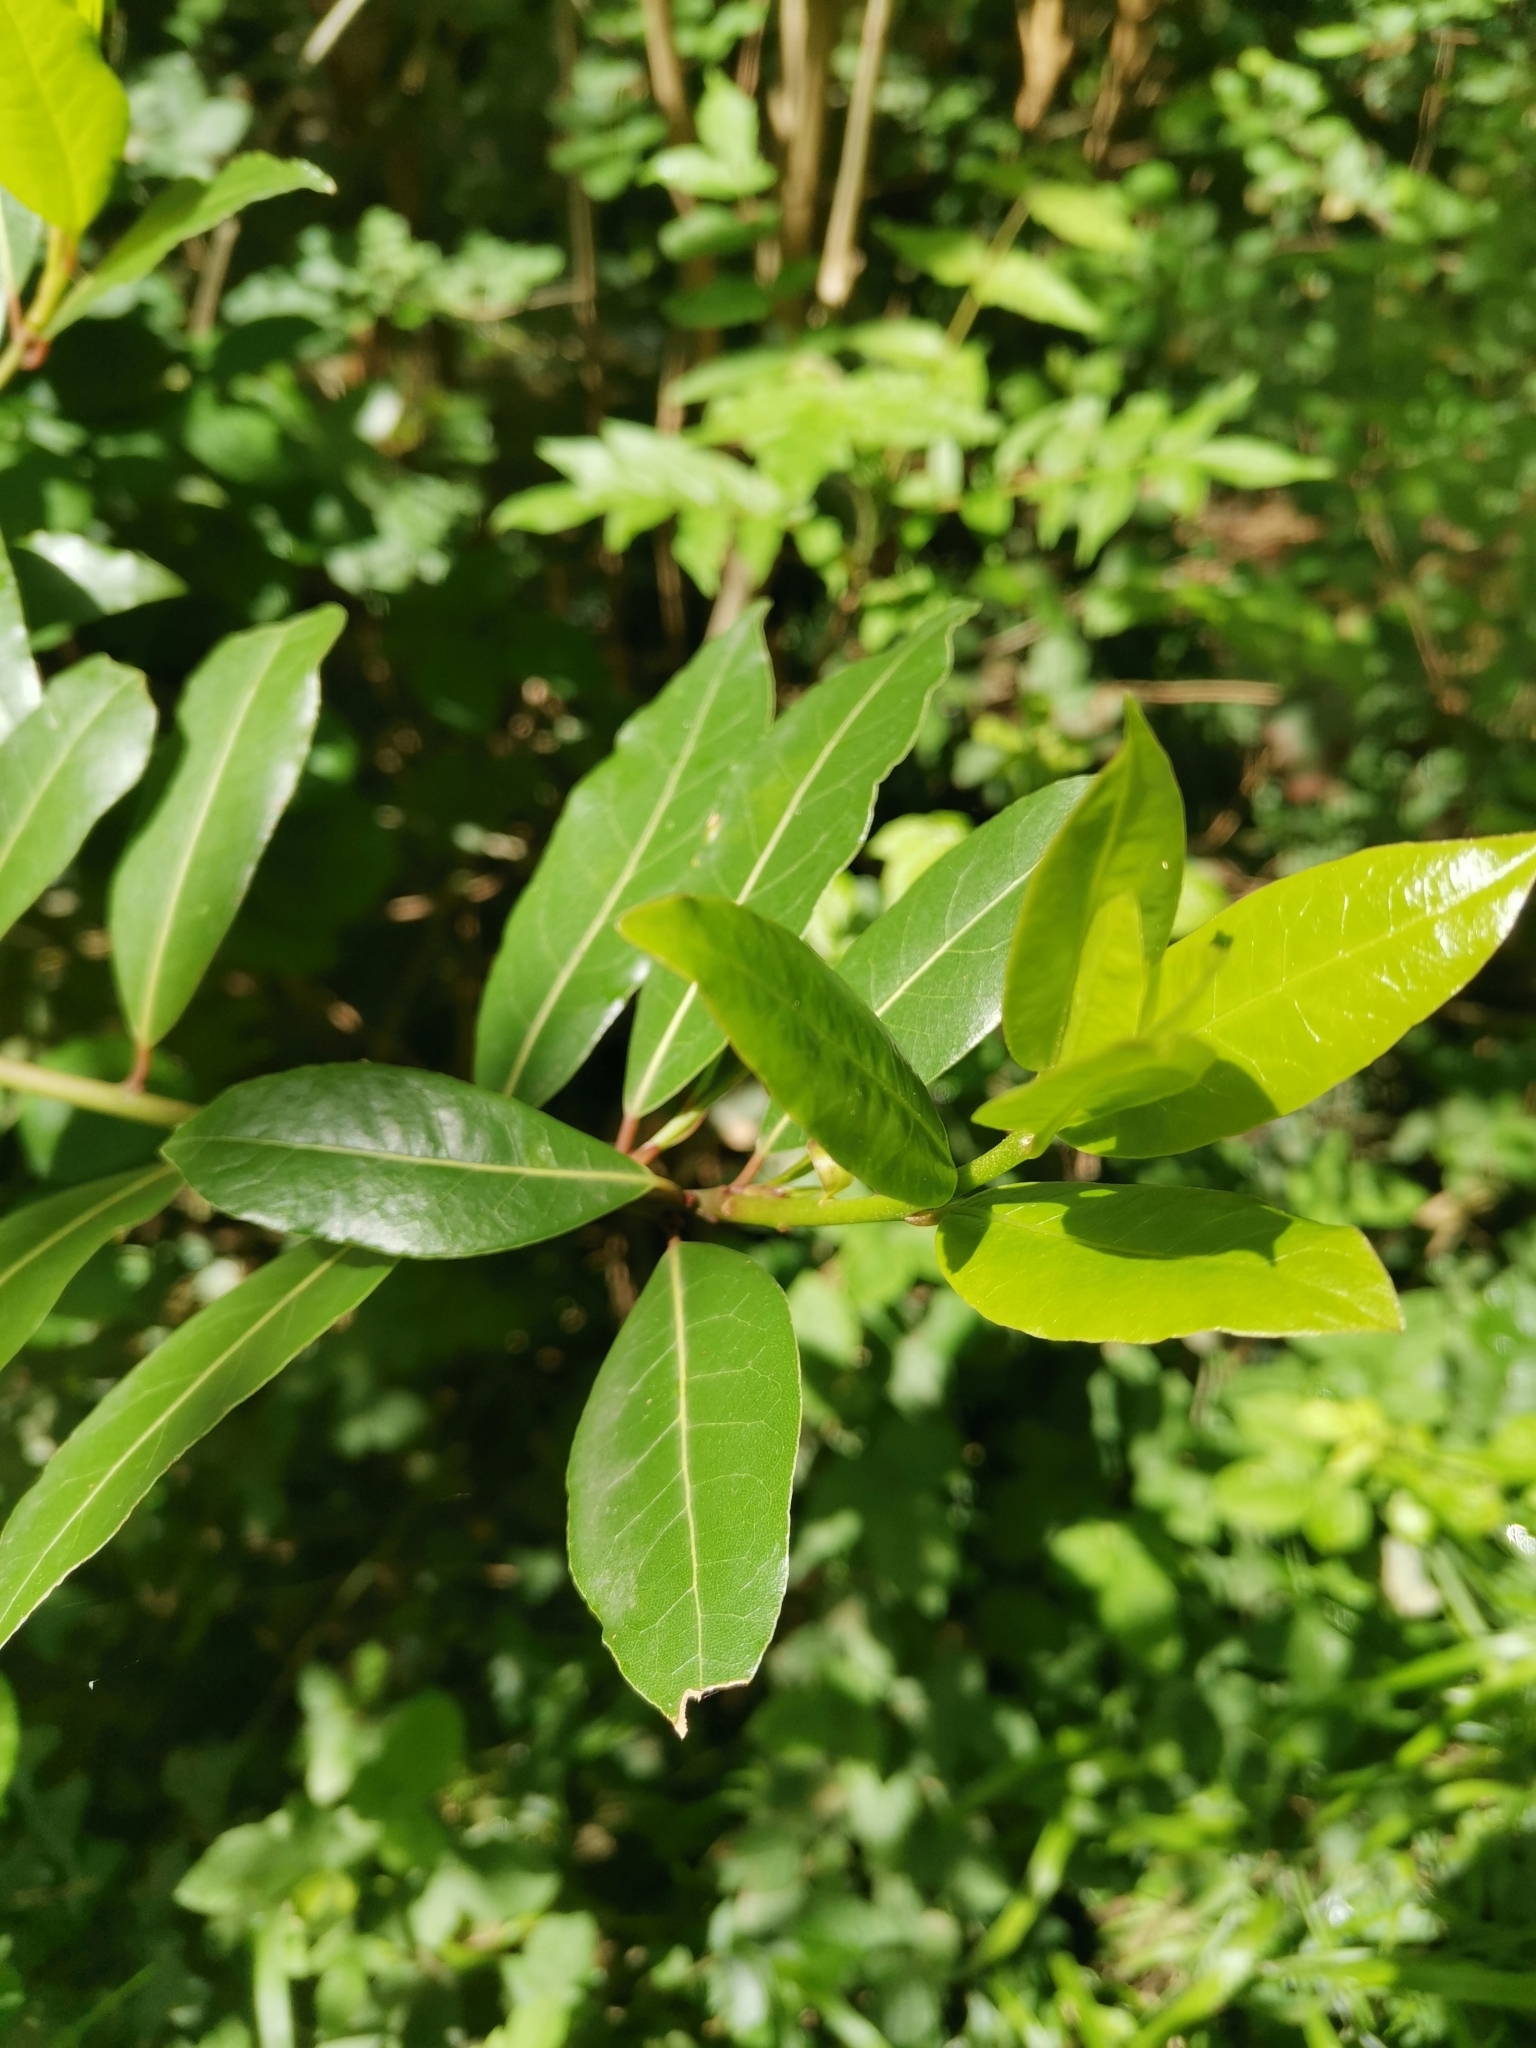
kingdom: Plantae
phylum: Tracheophyta
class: Magnoliopsida
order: Laurales
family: Lauraceae
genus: Laurus
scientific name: Laurus nobilis
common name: Bay
